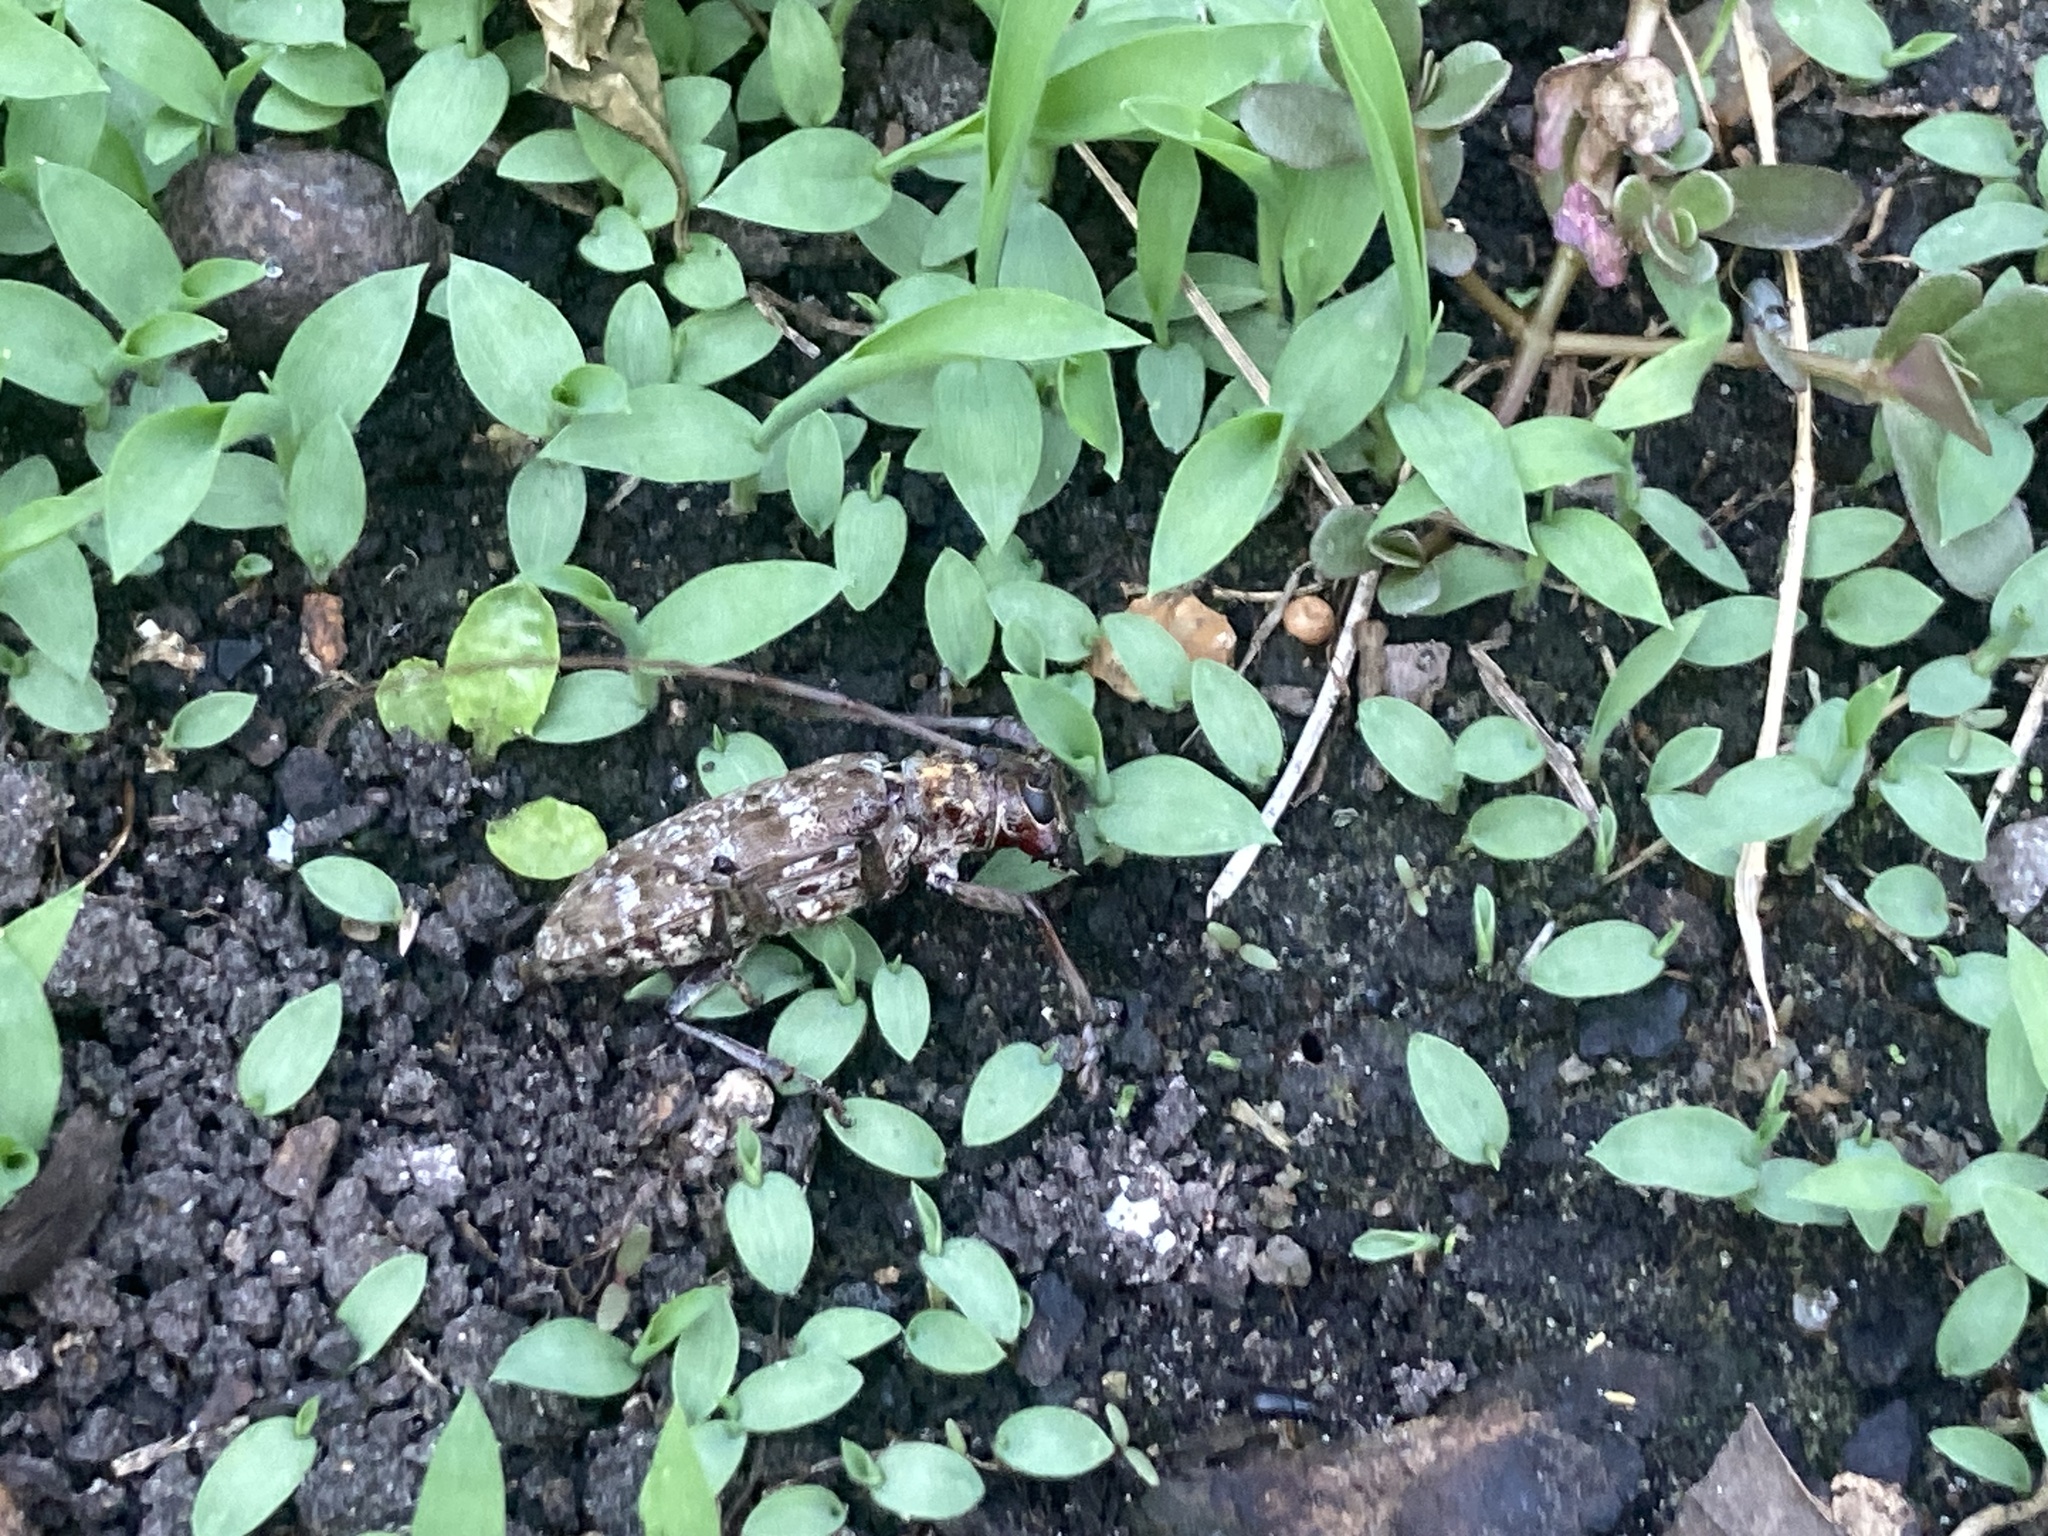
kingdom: Animalia
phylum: Arthropoda
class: Insecta
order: Coleoptera
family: Cerambycidae
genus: Monochamus
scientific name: Monochamus titillator
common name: Southern pine sawyer
